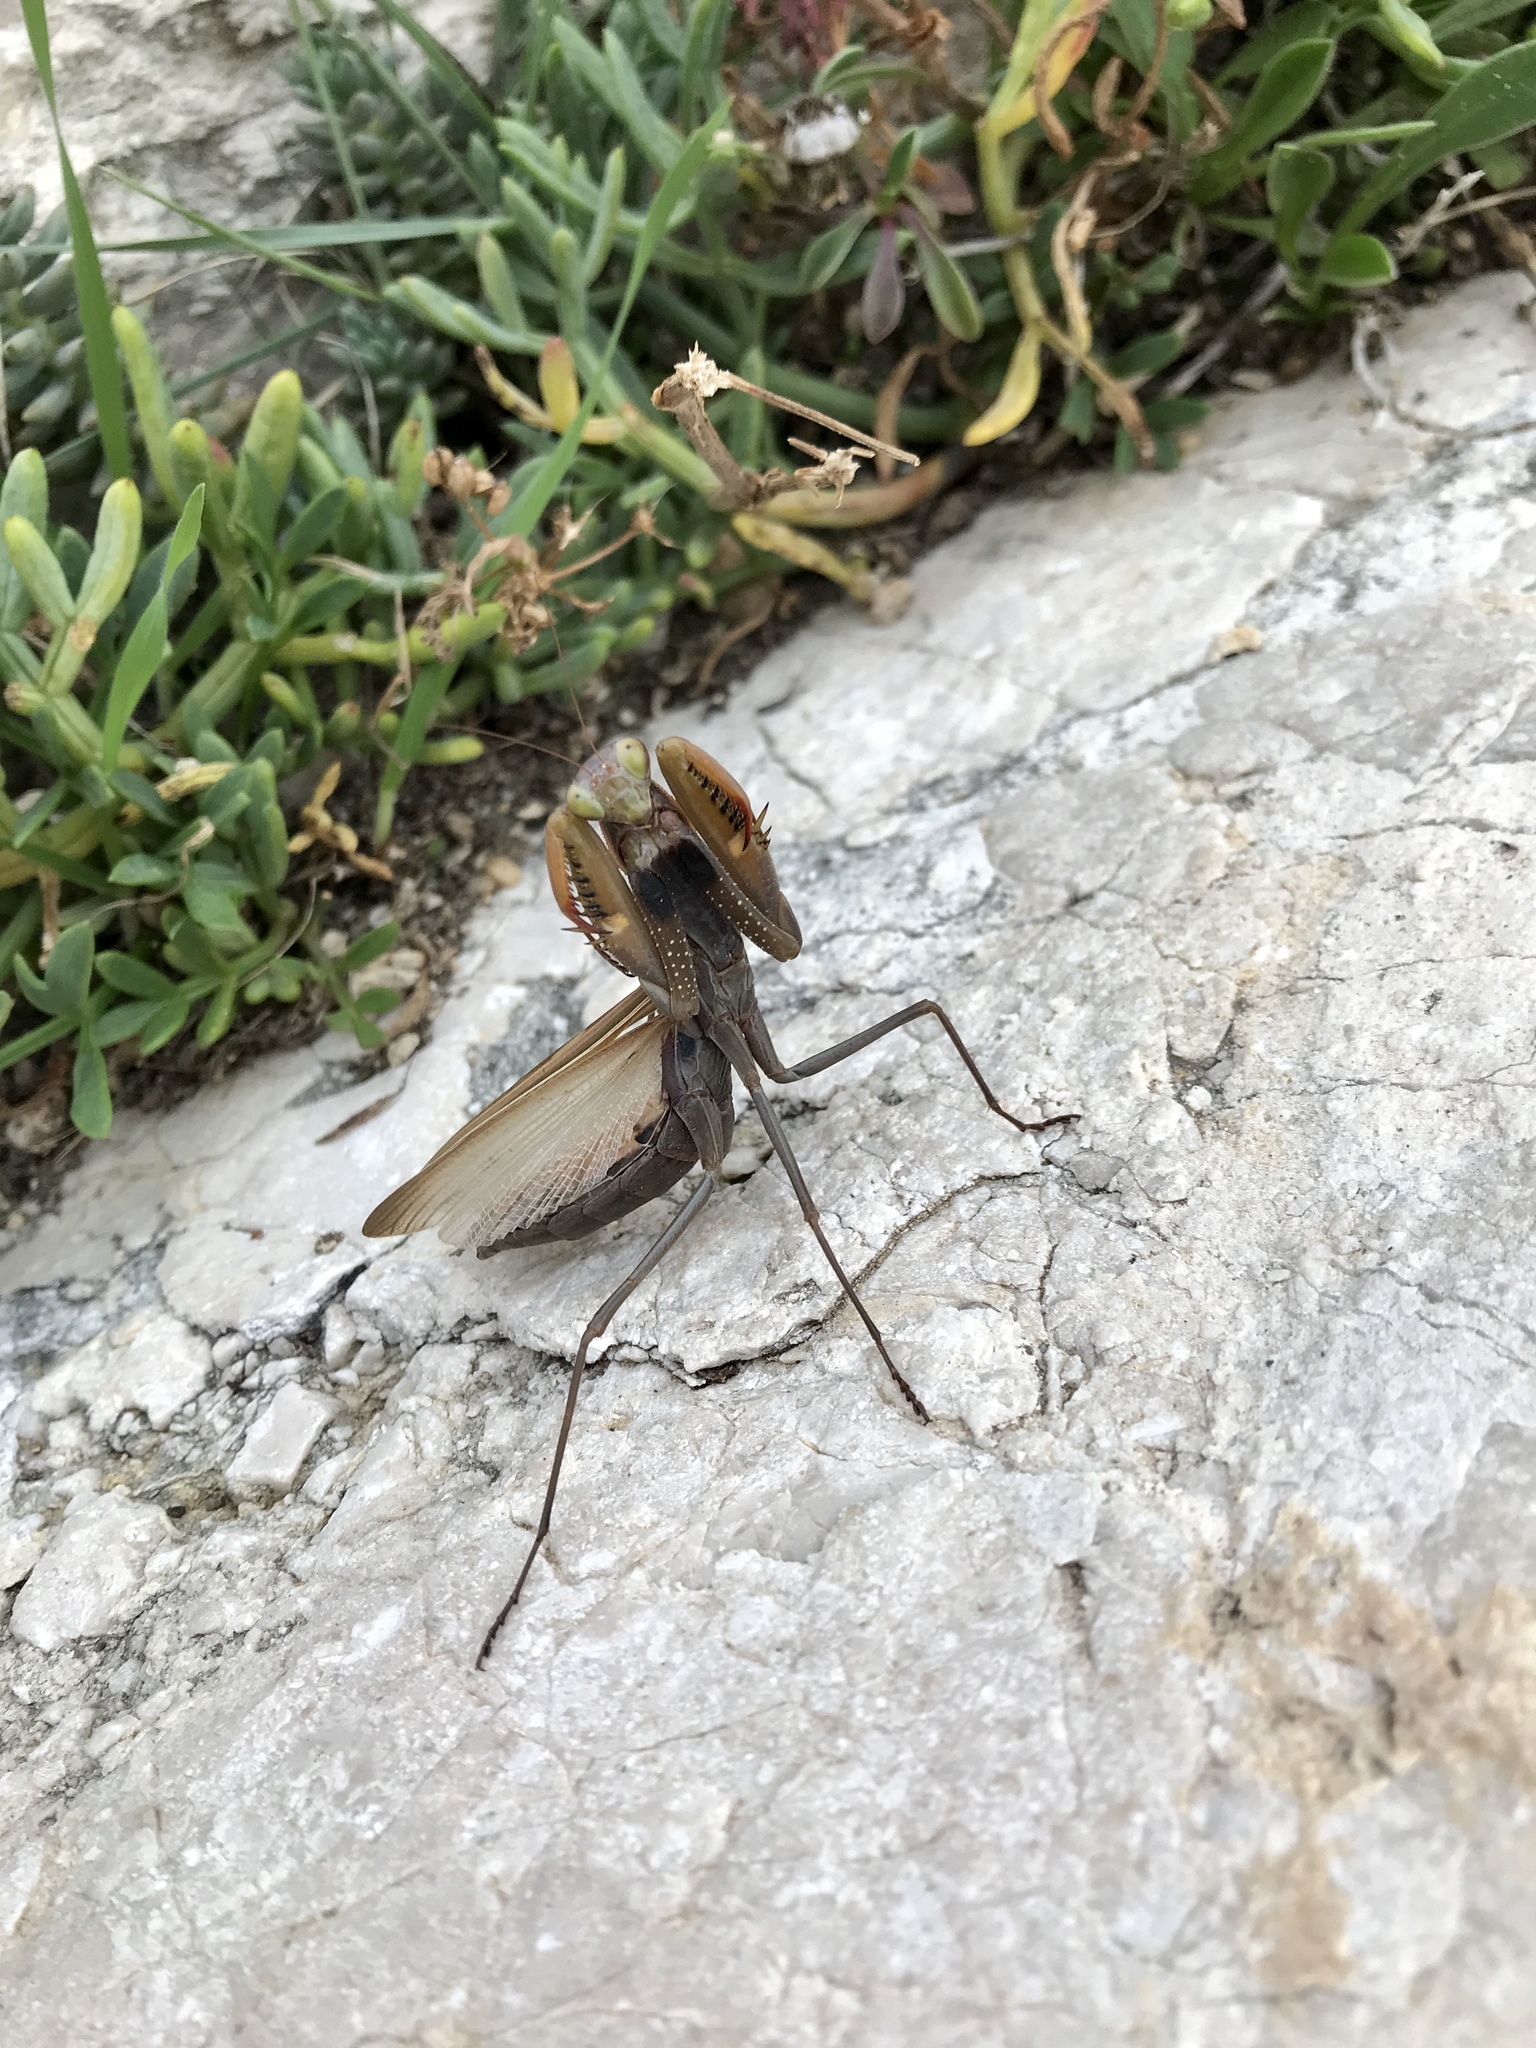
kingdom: Animalia
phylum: Arthropoda
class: Insecta
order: Mantodea
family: Mantidae
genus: Mantis
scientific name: Mantis religiosa
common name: Praying mantis
